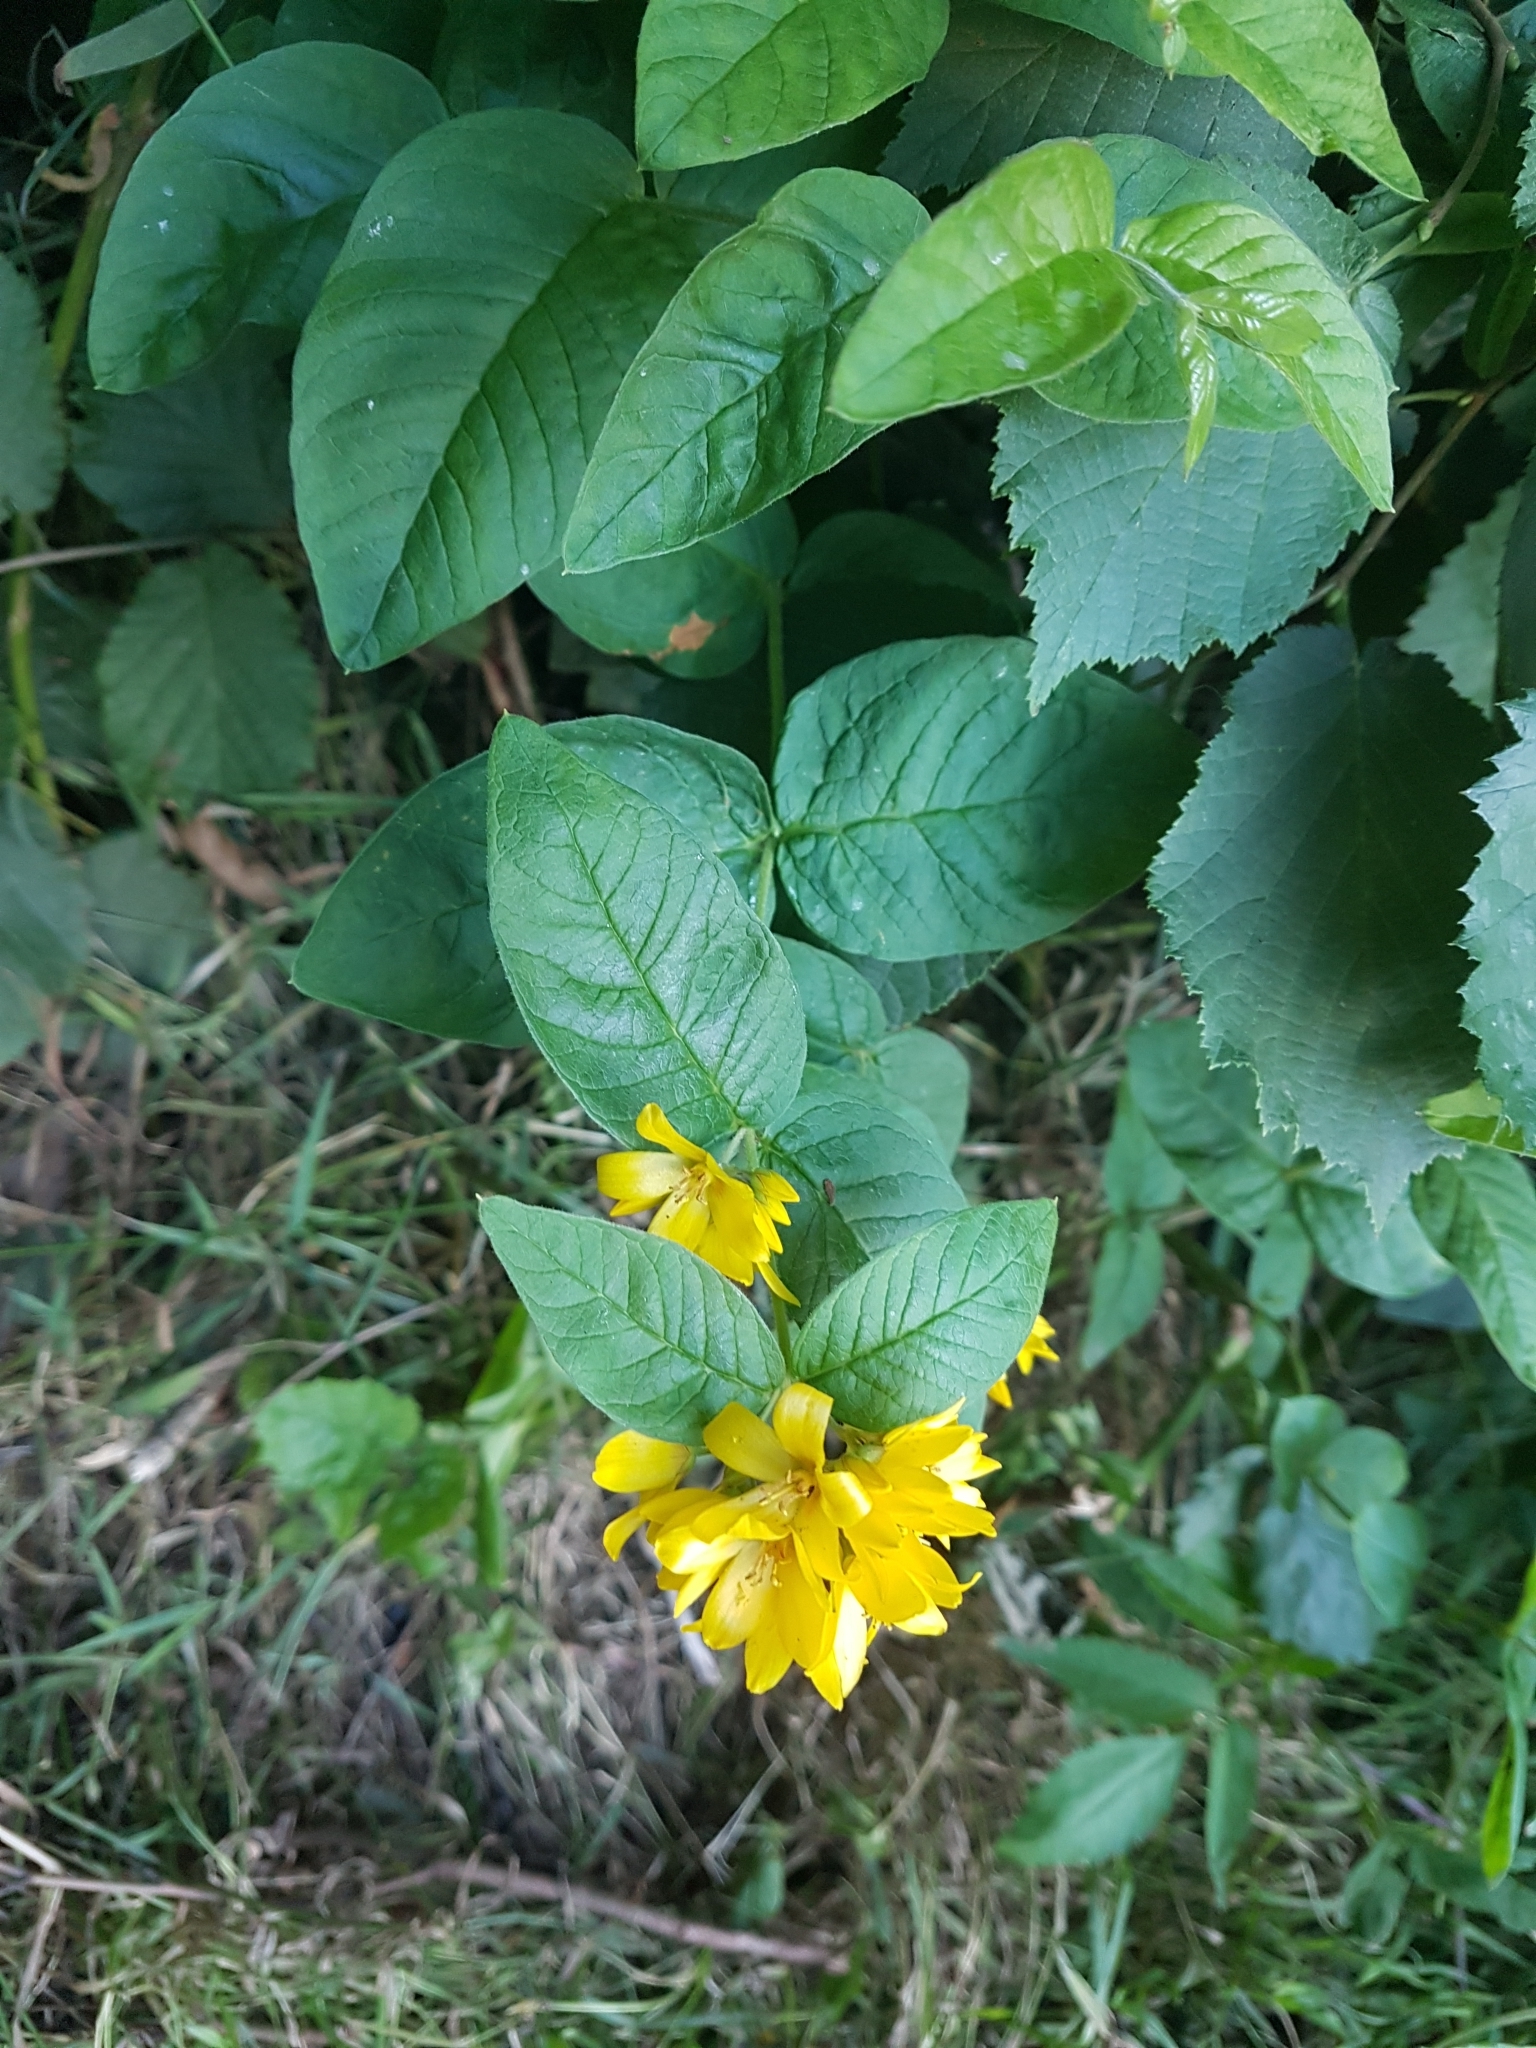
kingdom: Plantae
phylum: Tracheophyta
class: Magnoliopsida
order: Ericales
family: Primulaceae
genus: Lysimachia
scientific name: Lysimachia vulgaris
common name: Yellow loosestrife
